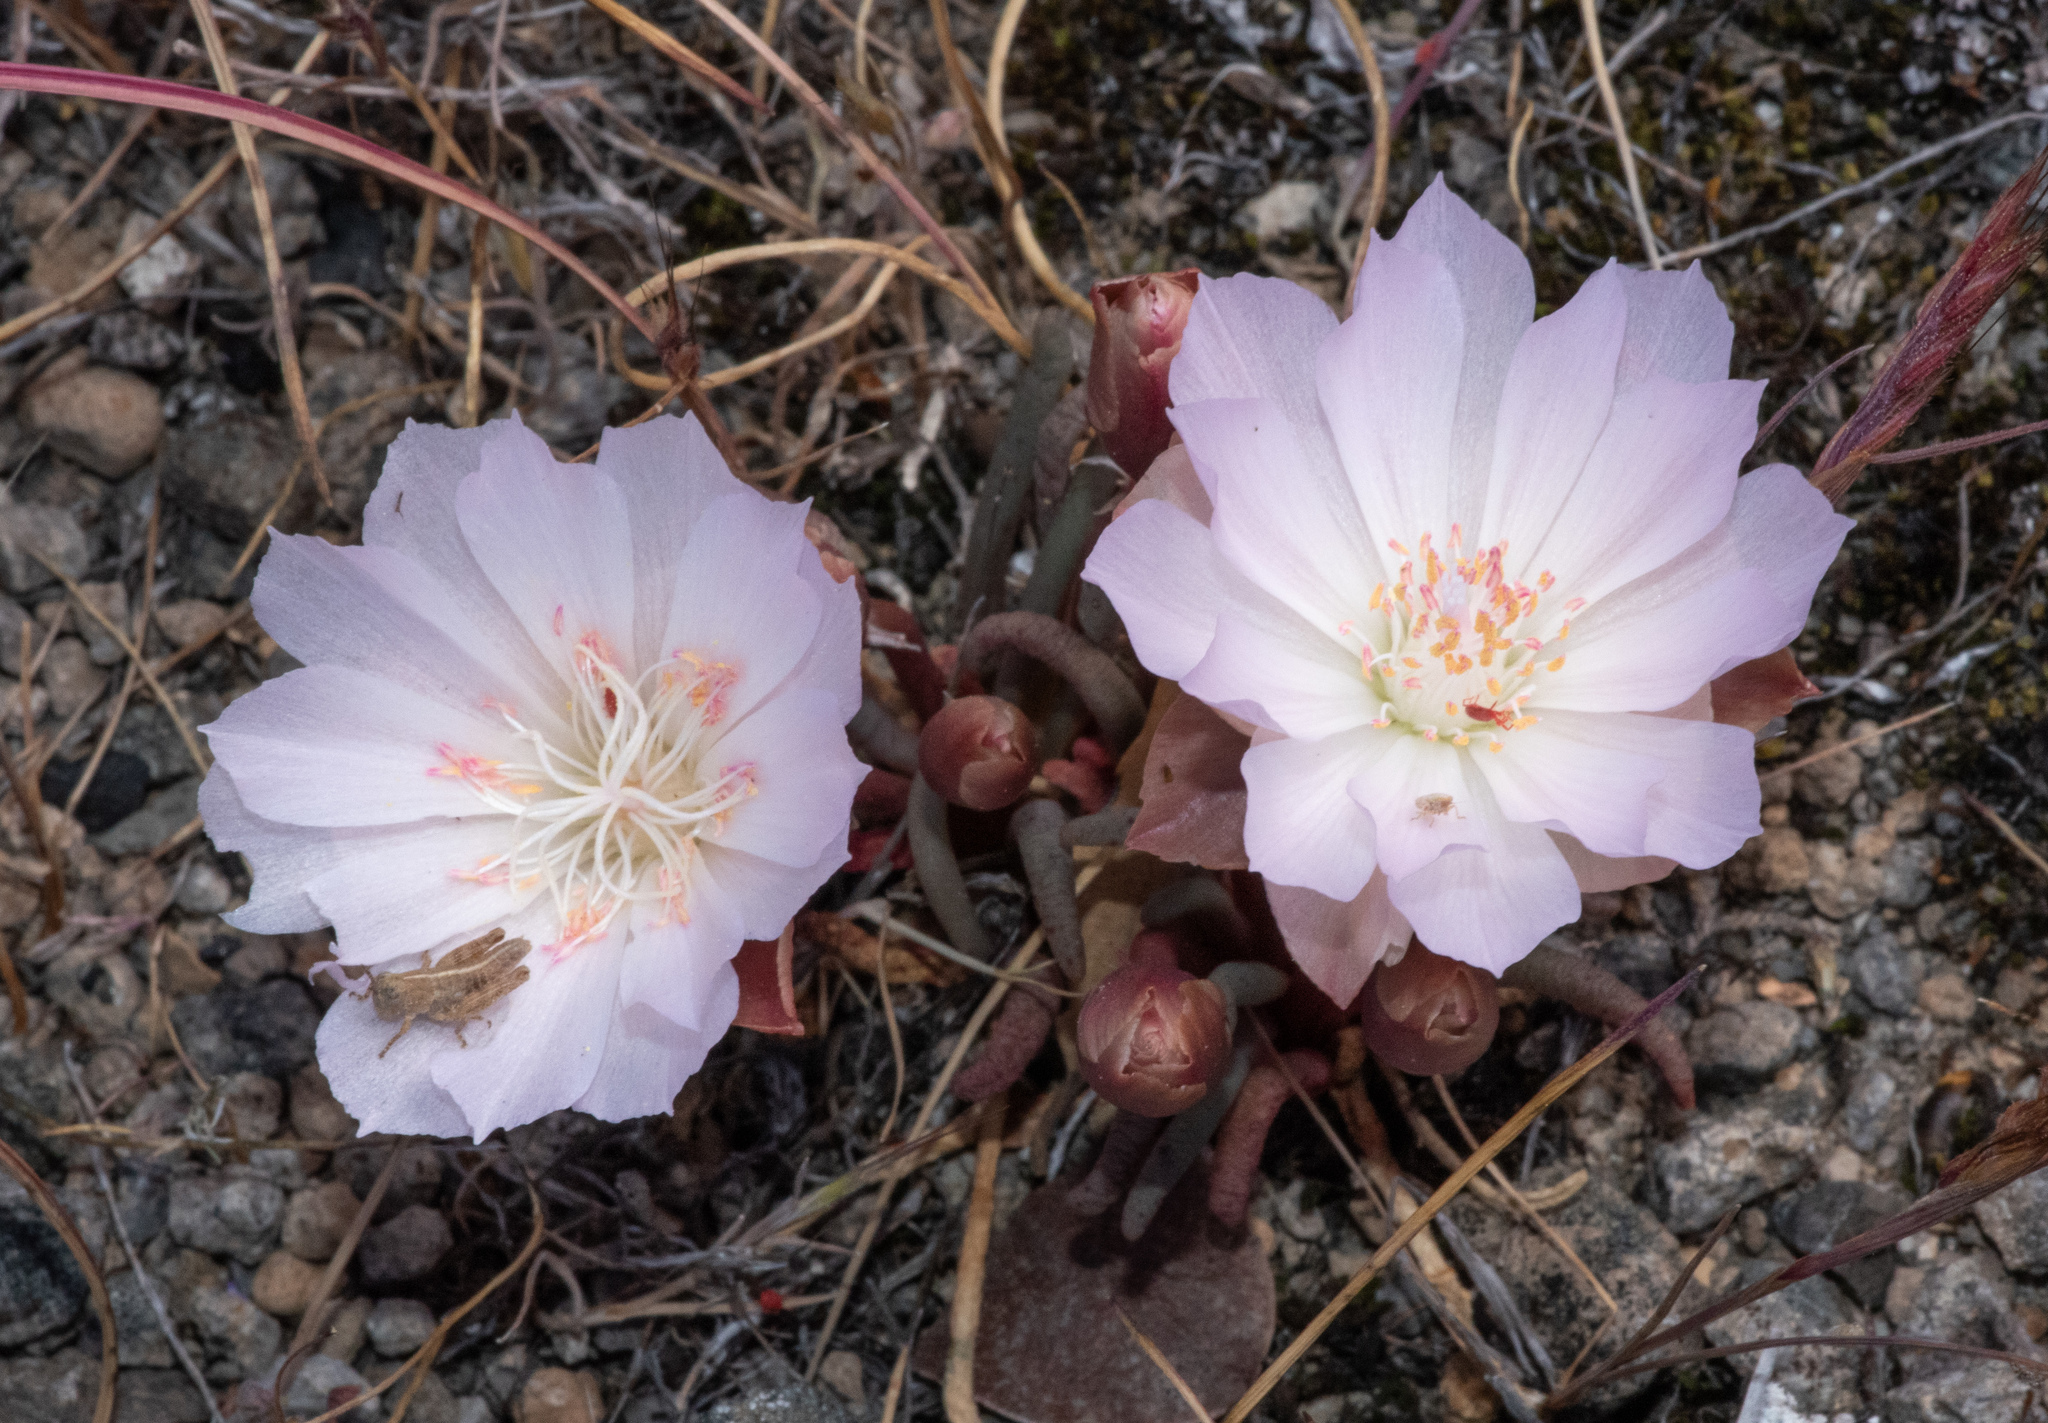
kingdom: Plantae
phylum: Tracheophyta
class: Magnoliopsida
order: Caryophyllales
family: Montiaceae
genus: Lewisia
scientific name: Lewisia rediviva
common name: Bitter-root
